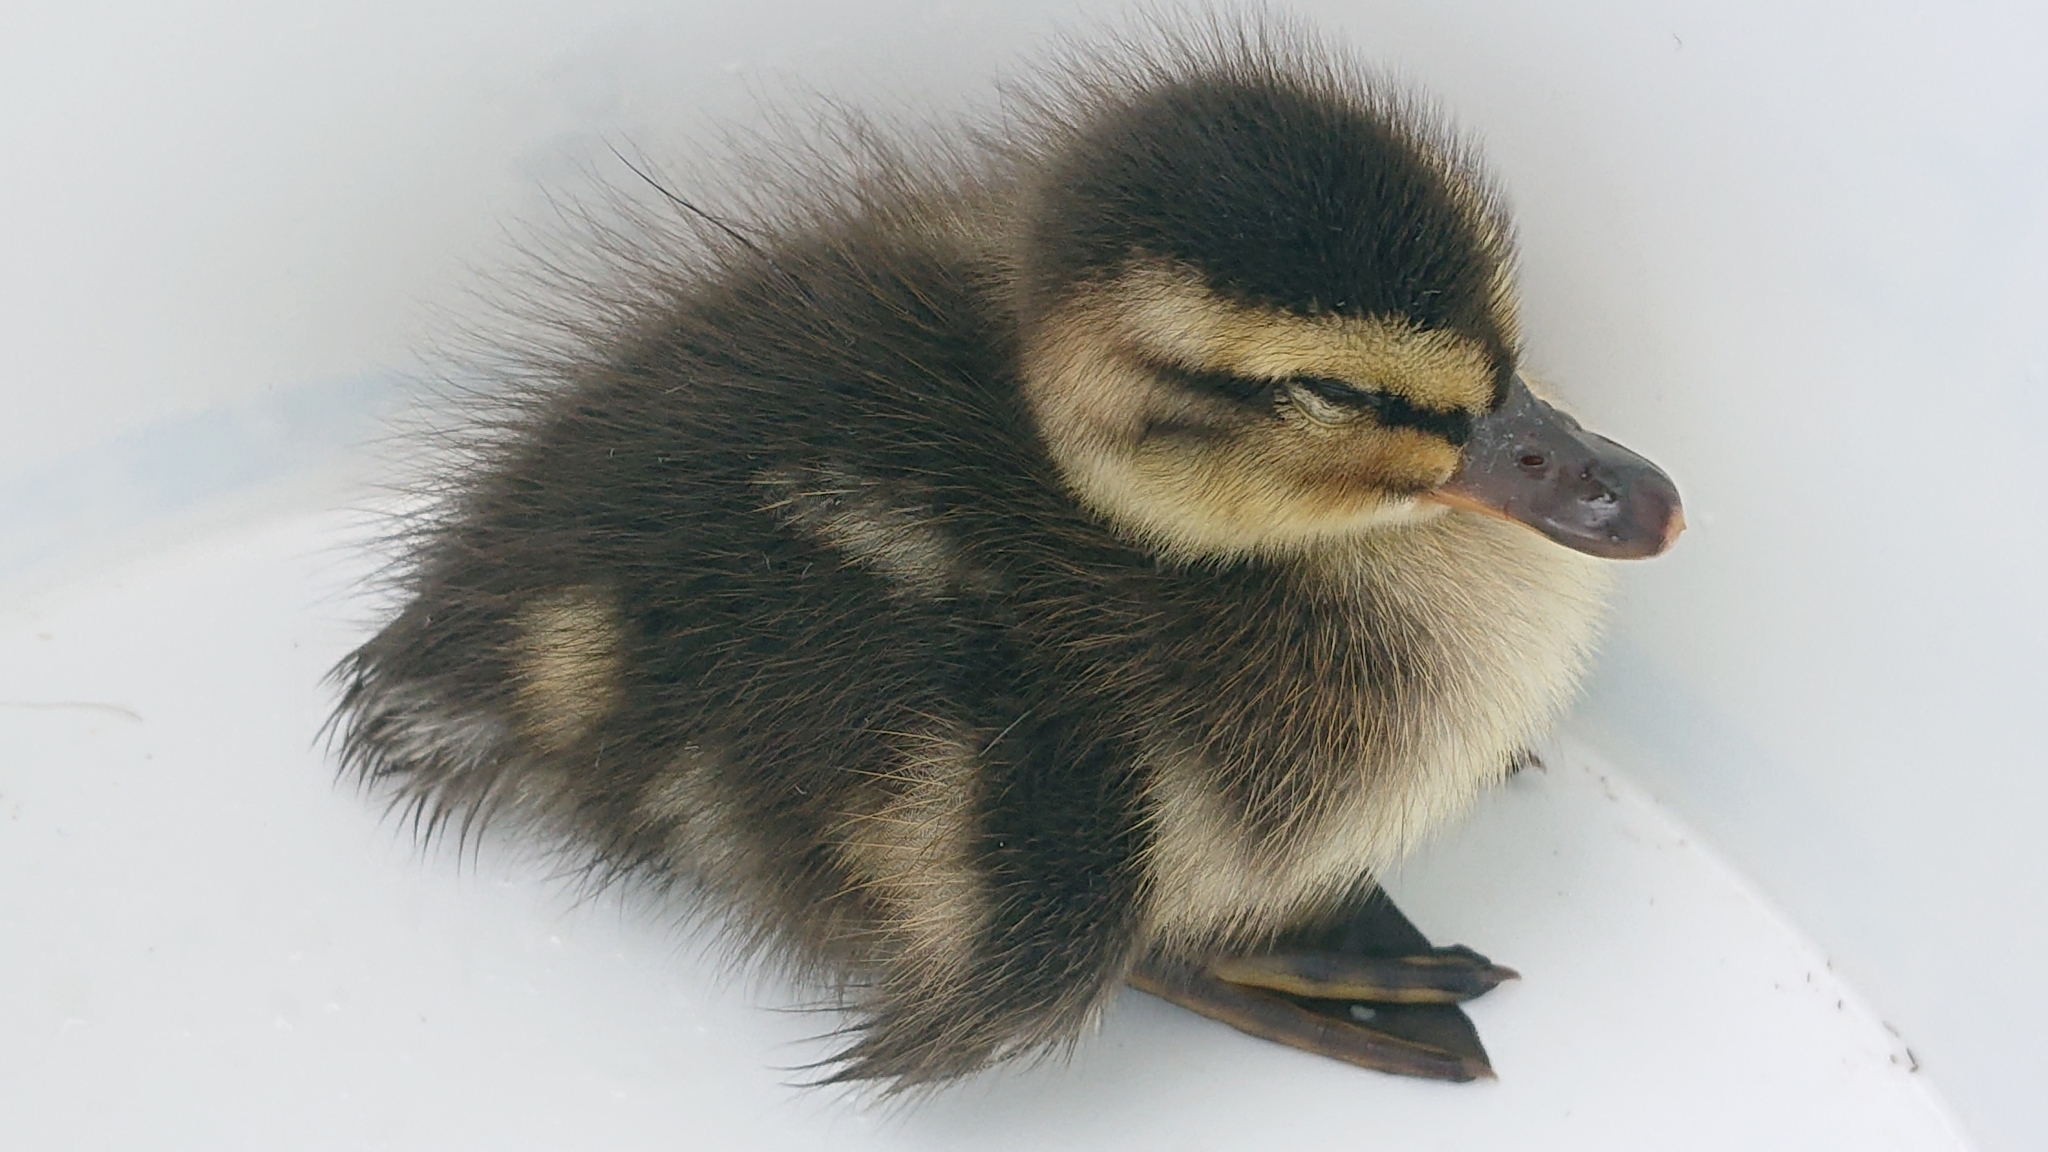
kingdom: Animalia
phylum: Chordata
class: Aves
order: Anseriformes
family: Anatidae
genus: Anas
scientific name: Anas platyrhynchos
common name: Mallard
